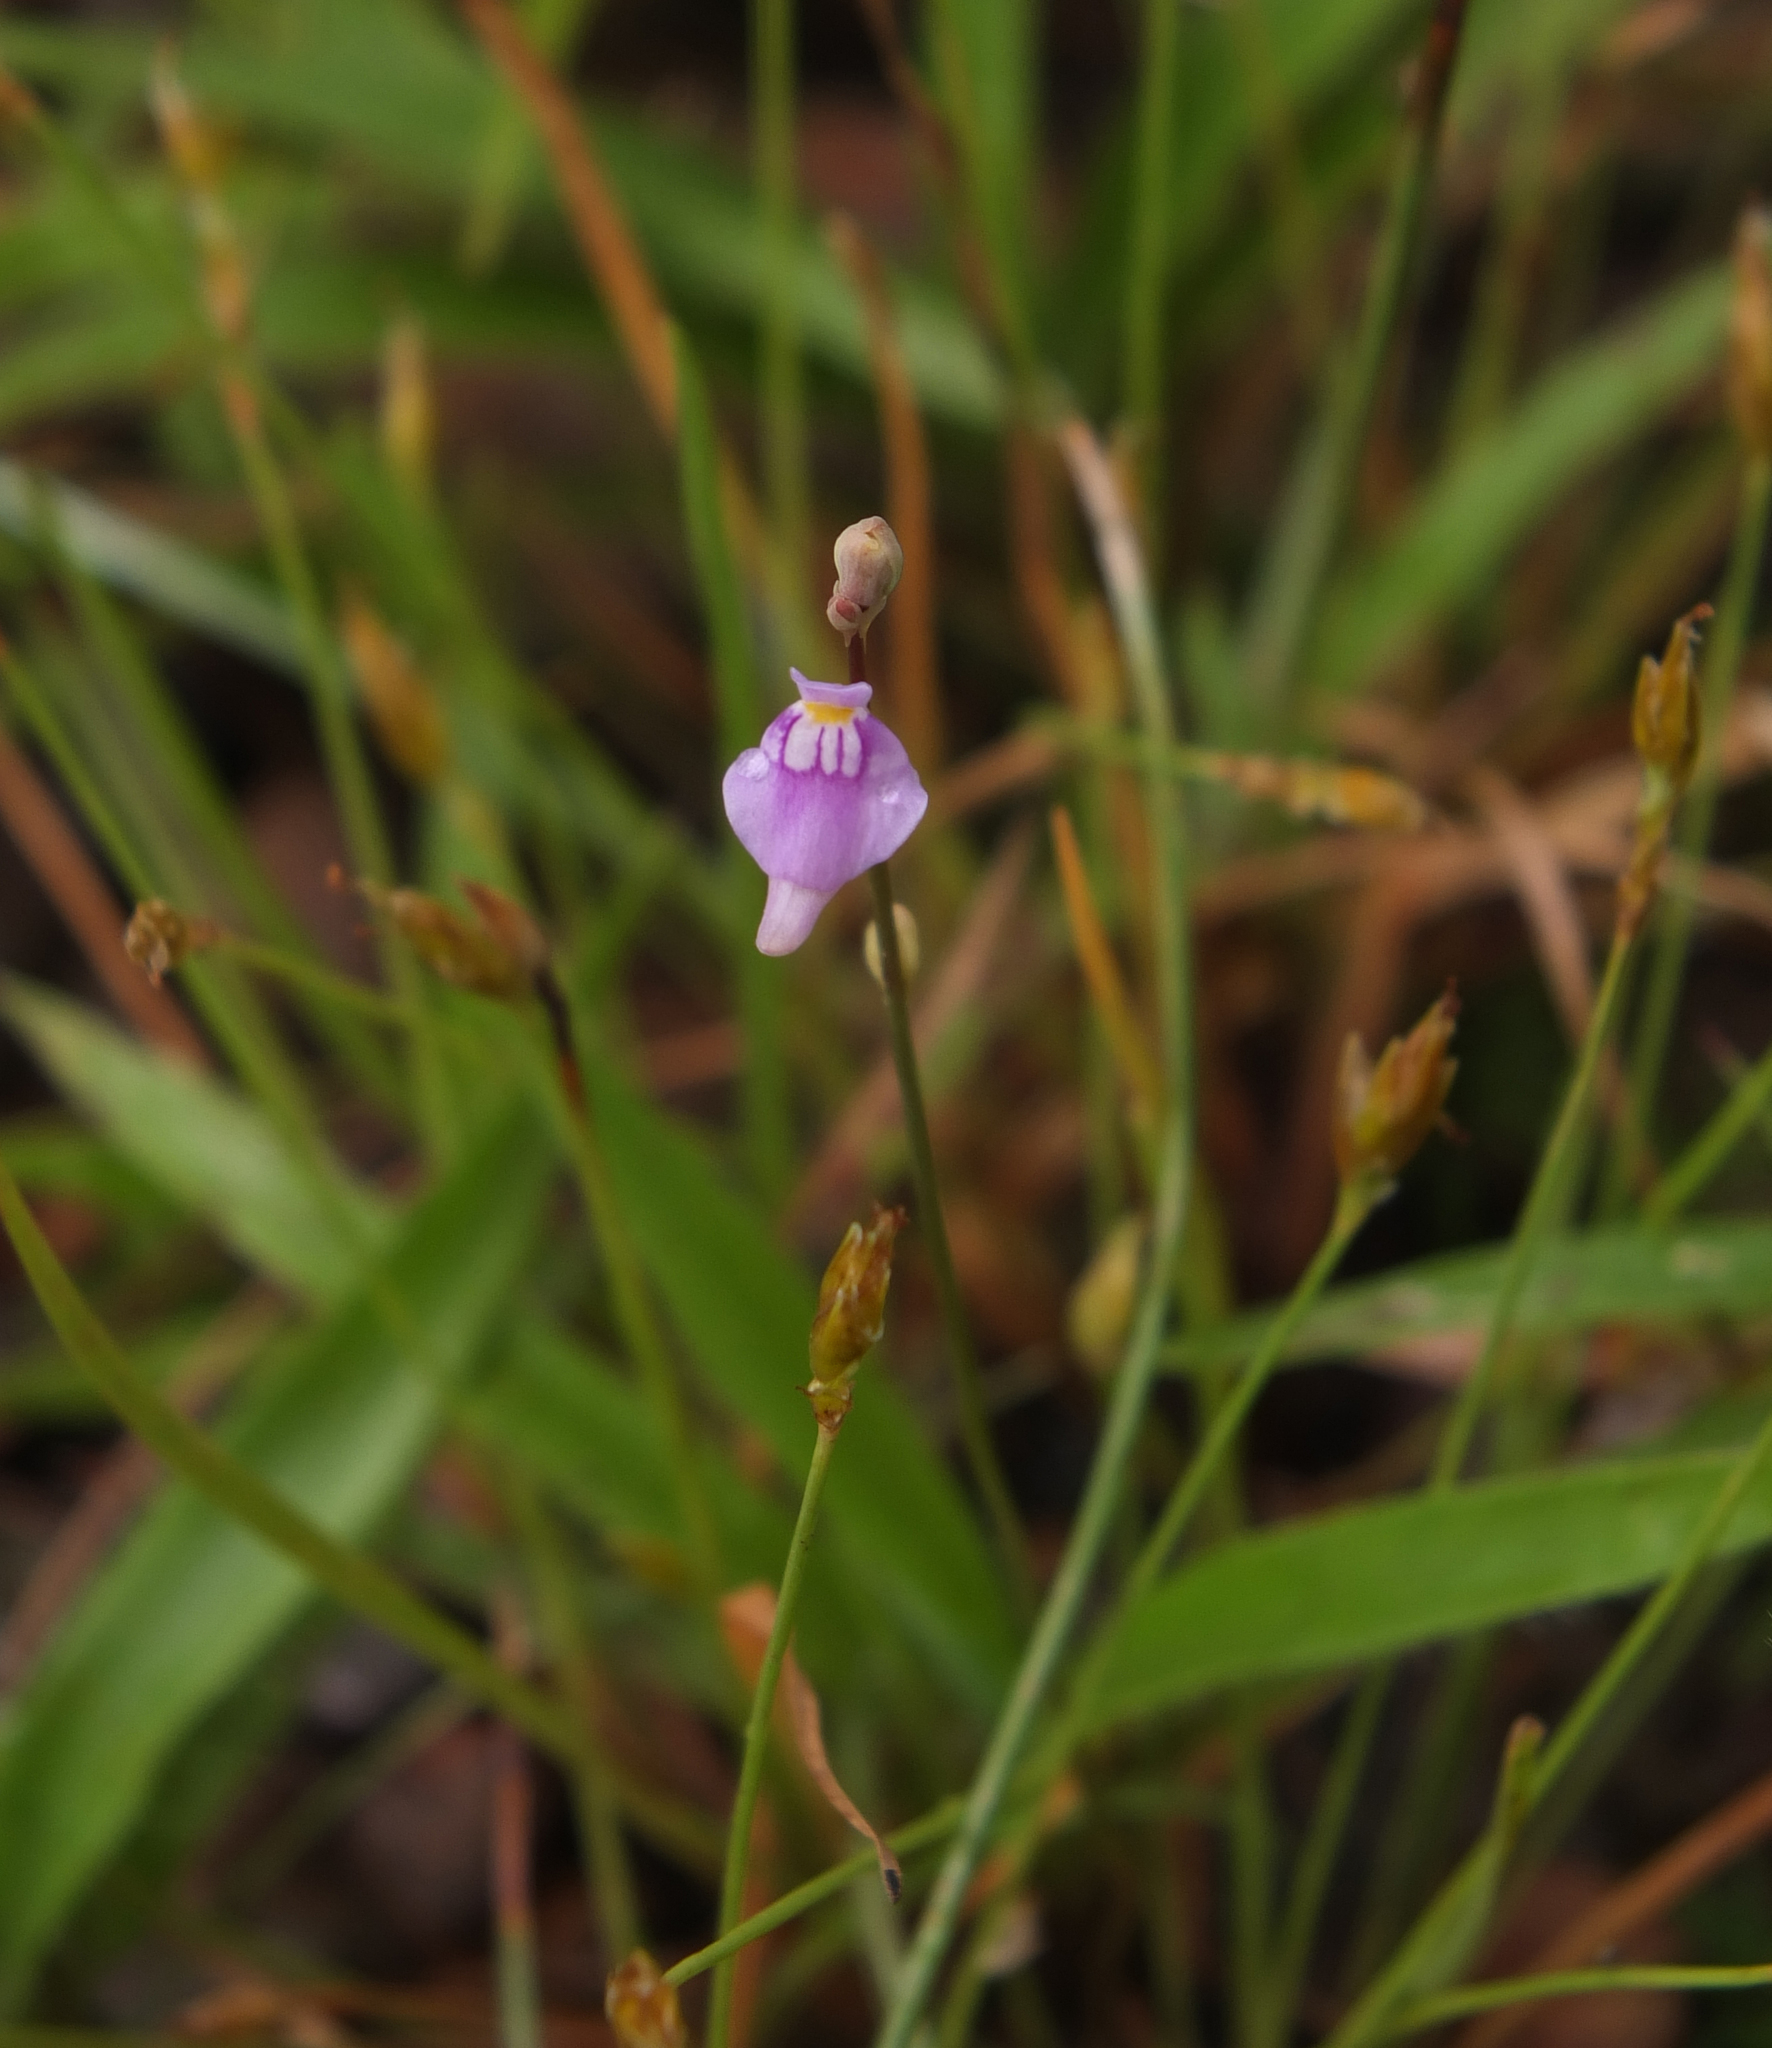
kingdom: Plantae
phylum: Tracheophyta
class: Magnoliopsida
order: Lamiales
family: Lentibulariaceae
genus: Utricularia
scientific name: Utricularia caerulea
